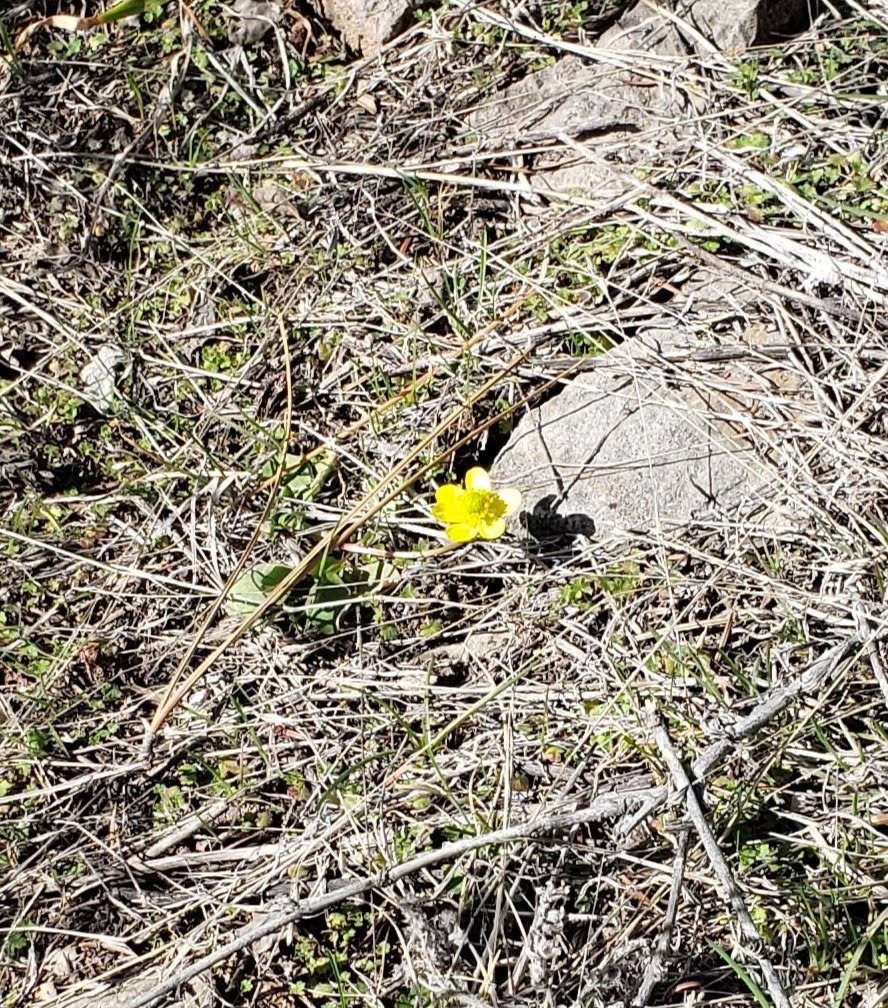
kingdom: Plantae
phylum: Tracheophyta
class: Magnoliopsida
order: Ranunculales
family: Ranunculaceae
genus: Ranunculus
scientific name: Ranunculus glaberrimus
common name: Sagebrush buttercup
